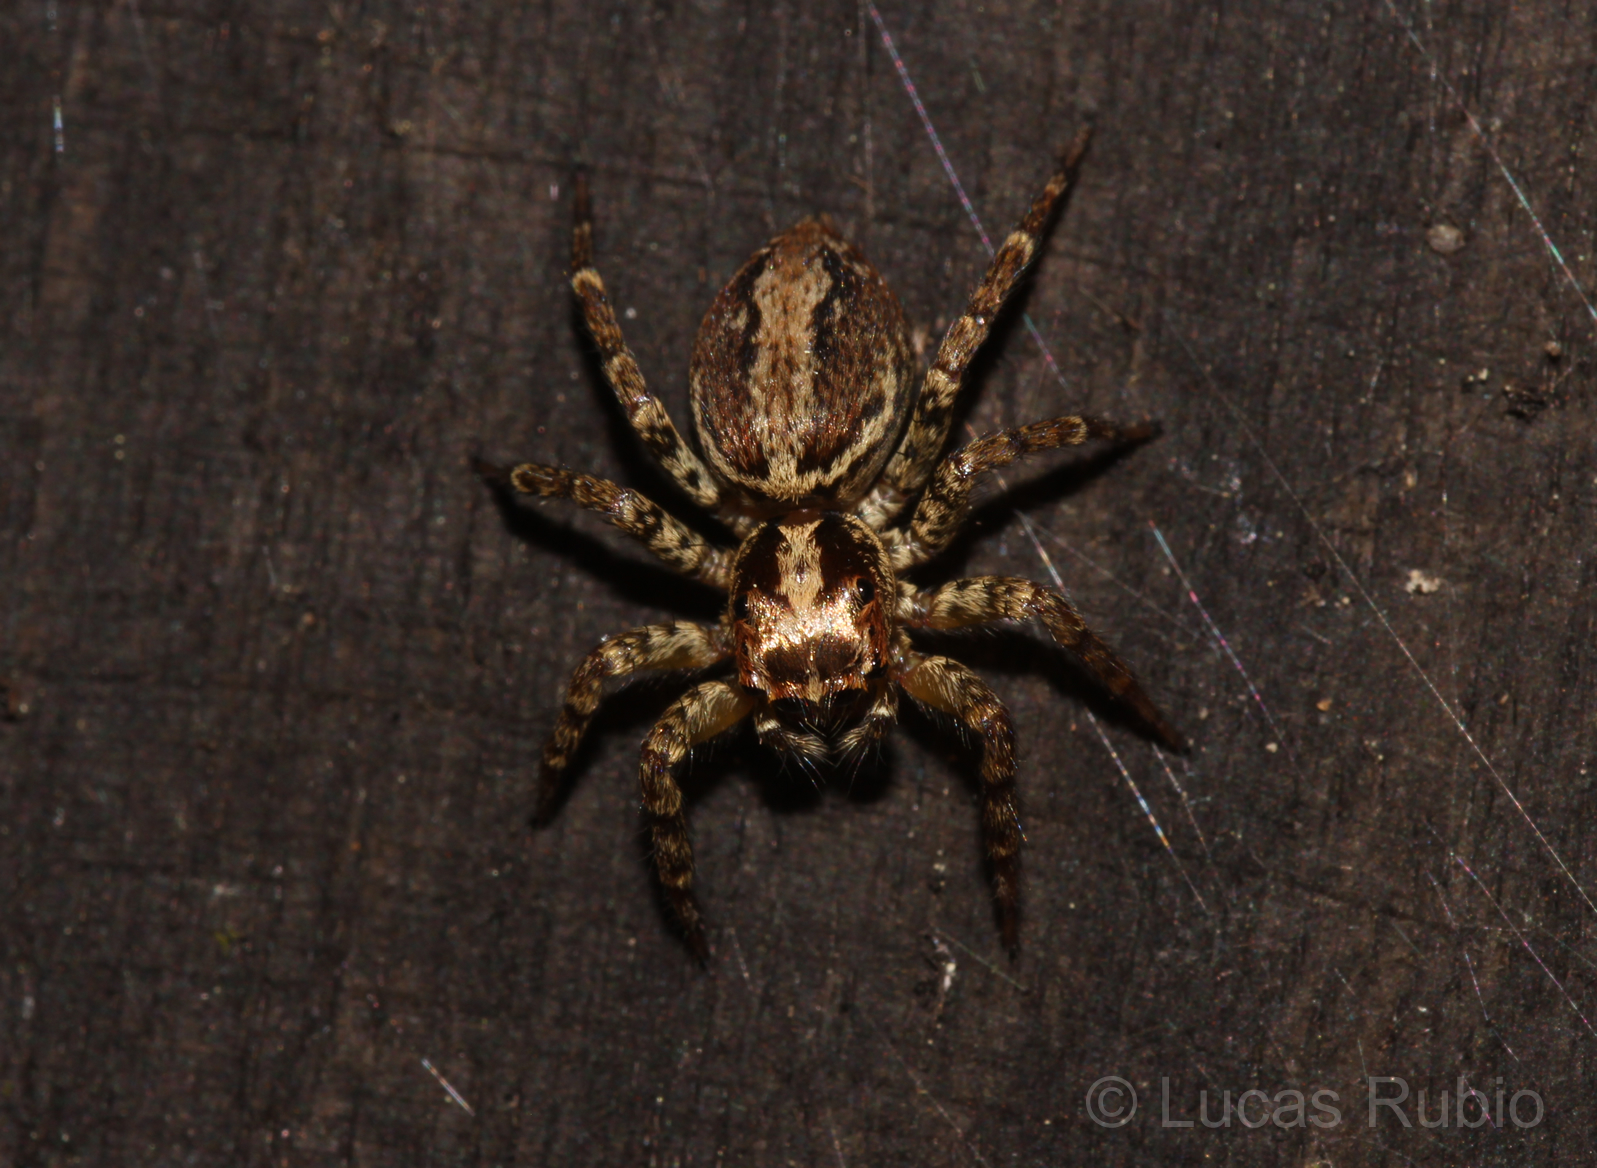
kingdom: Animalia
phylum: Arthropoda
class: Arachnida
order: Araneae
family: Salticidae
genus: Asaphobelis
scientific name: Asaphobelis physonychus
